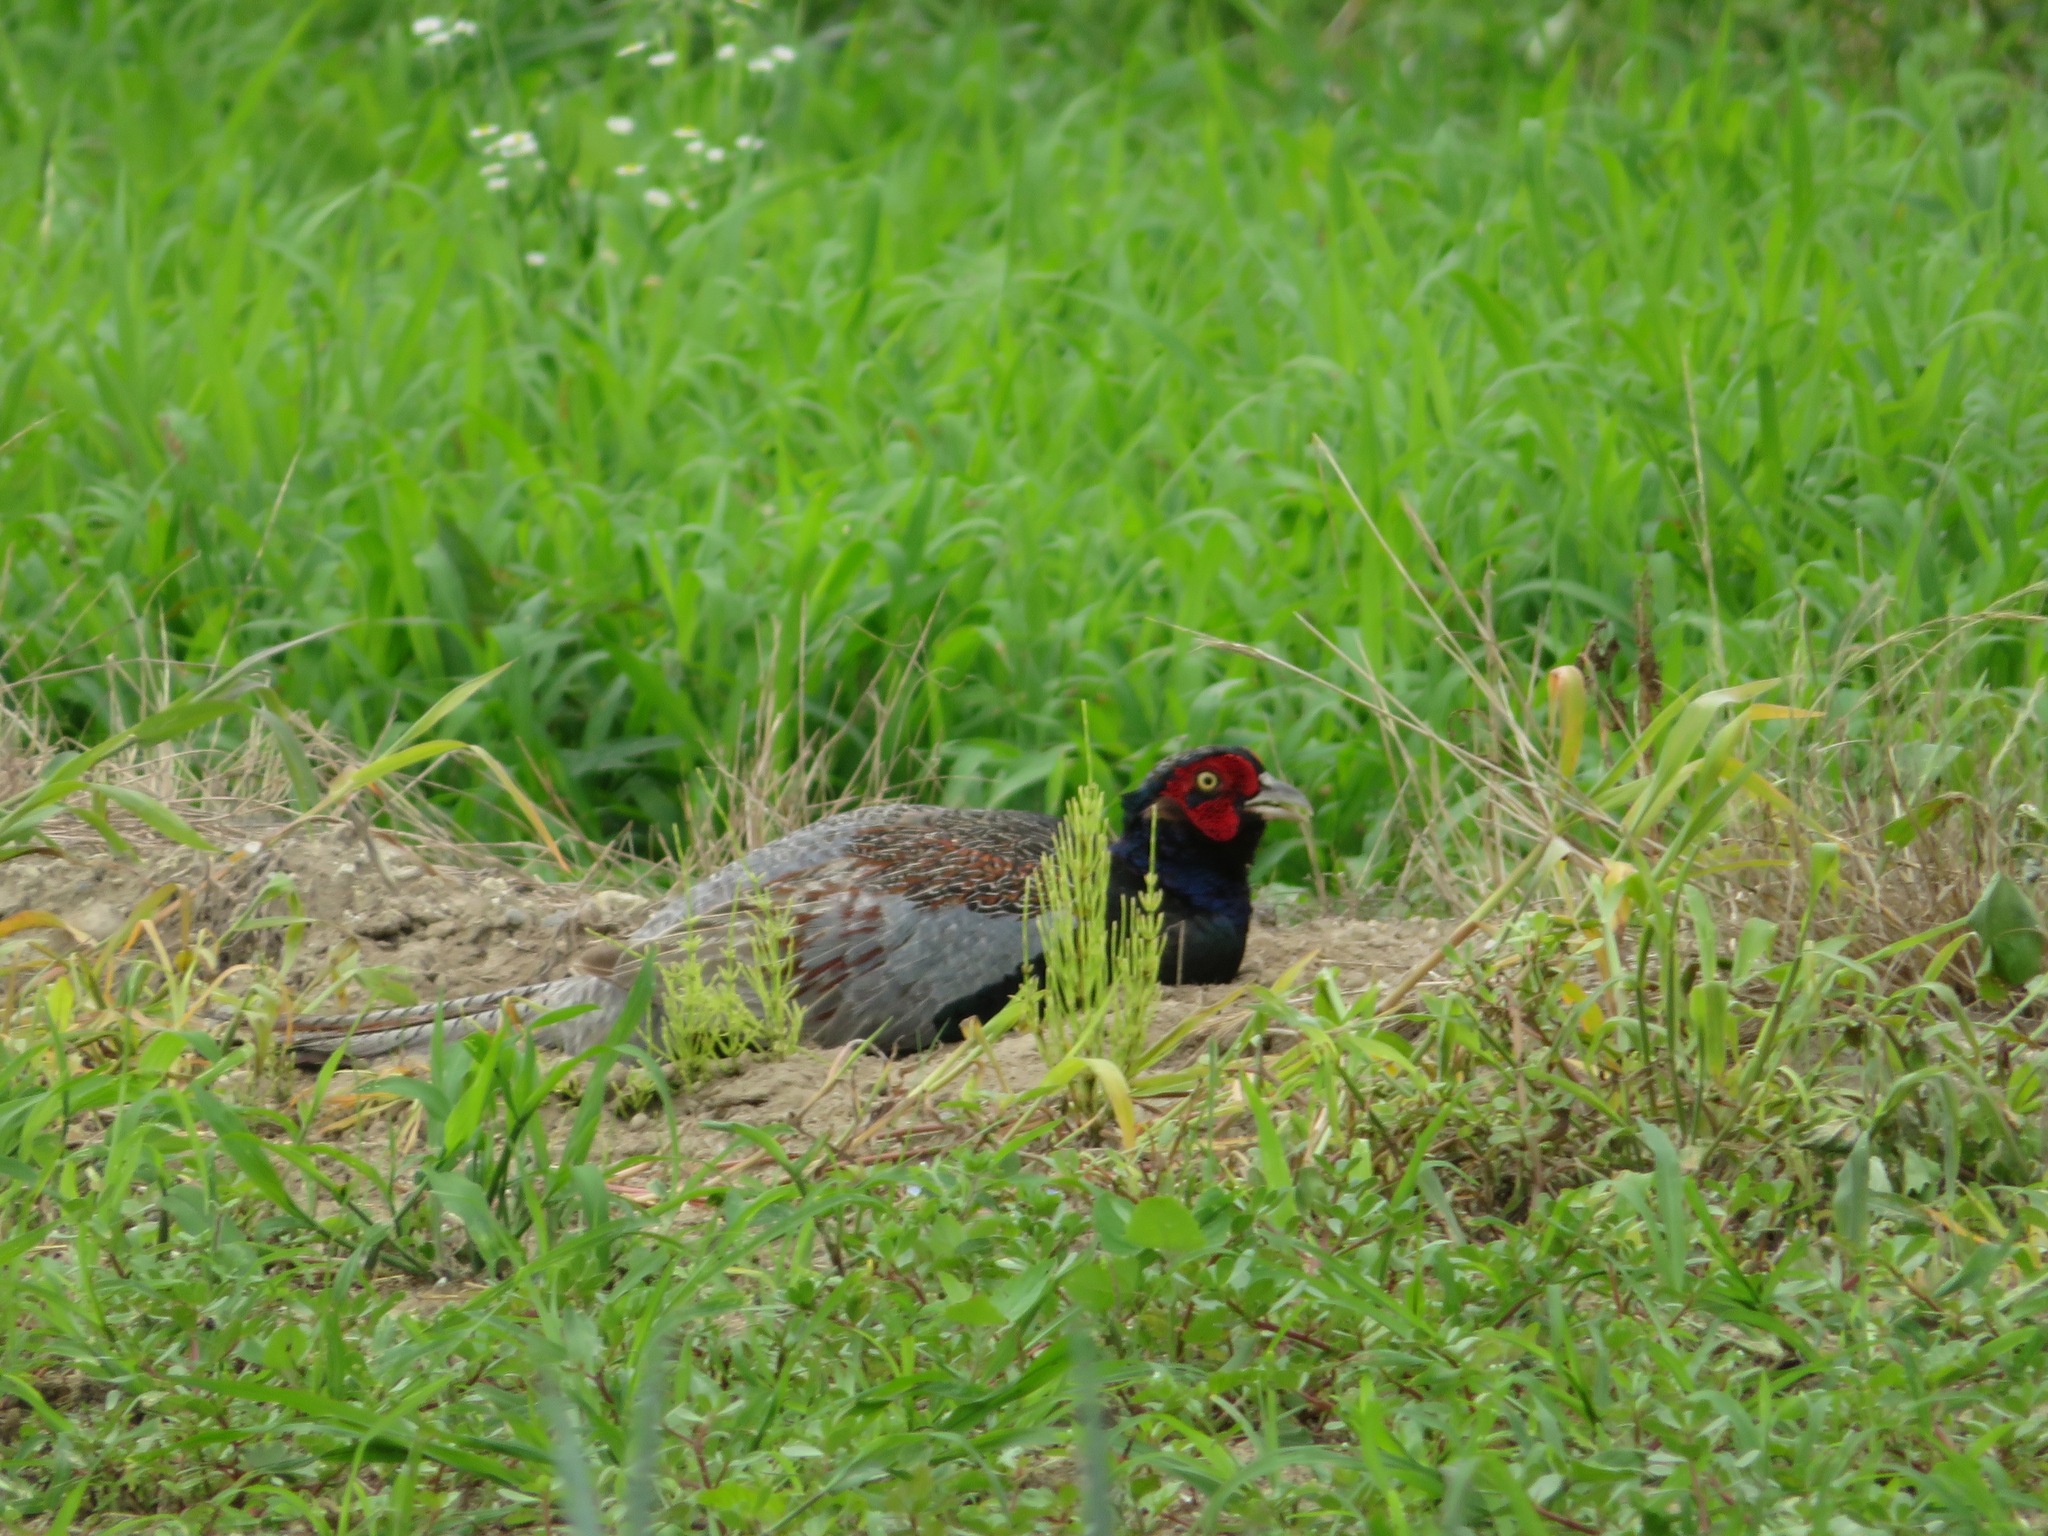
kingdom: Animalia
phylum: Chordata
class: Aves
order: Galliformes
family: Phasianidae
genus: Phasianus
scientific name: Phasianus versicolor
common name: Green pheasant
